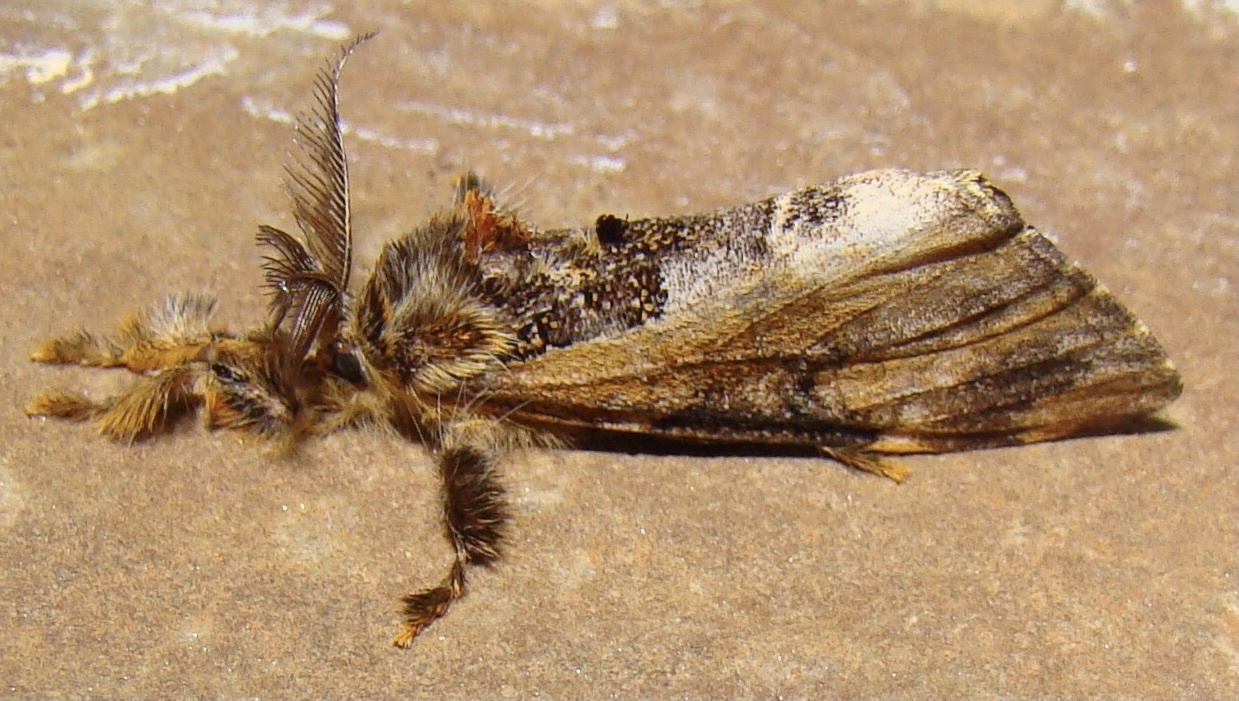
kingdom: Animalia
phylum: Arthropoda
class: Insecta
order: Lepidoptera
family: Erebidae
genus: Hemerophanes
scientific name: Hemerophanes libyra
